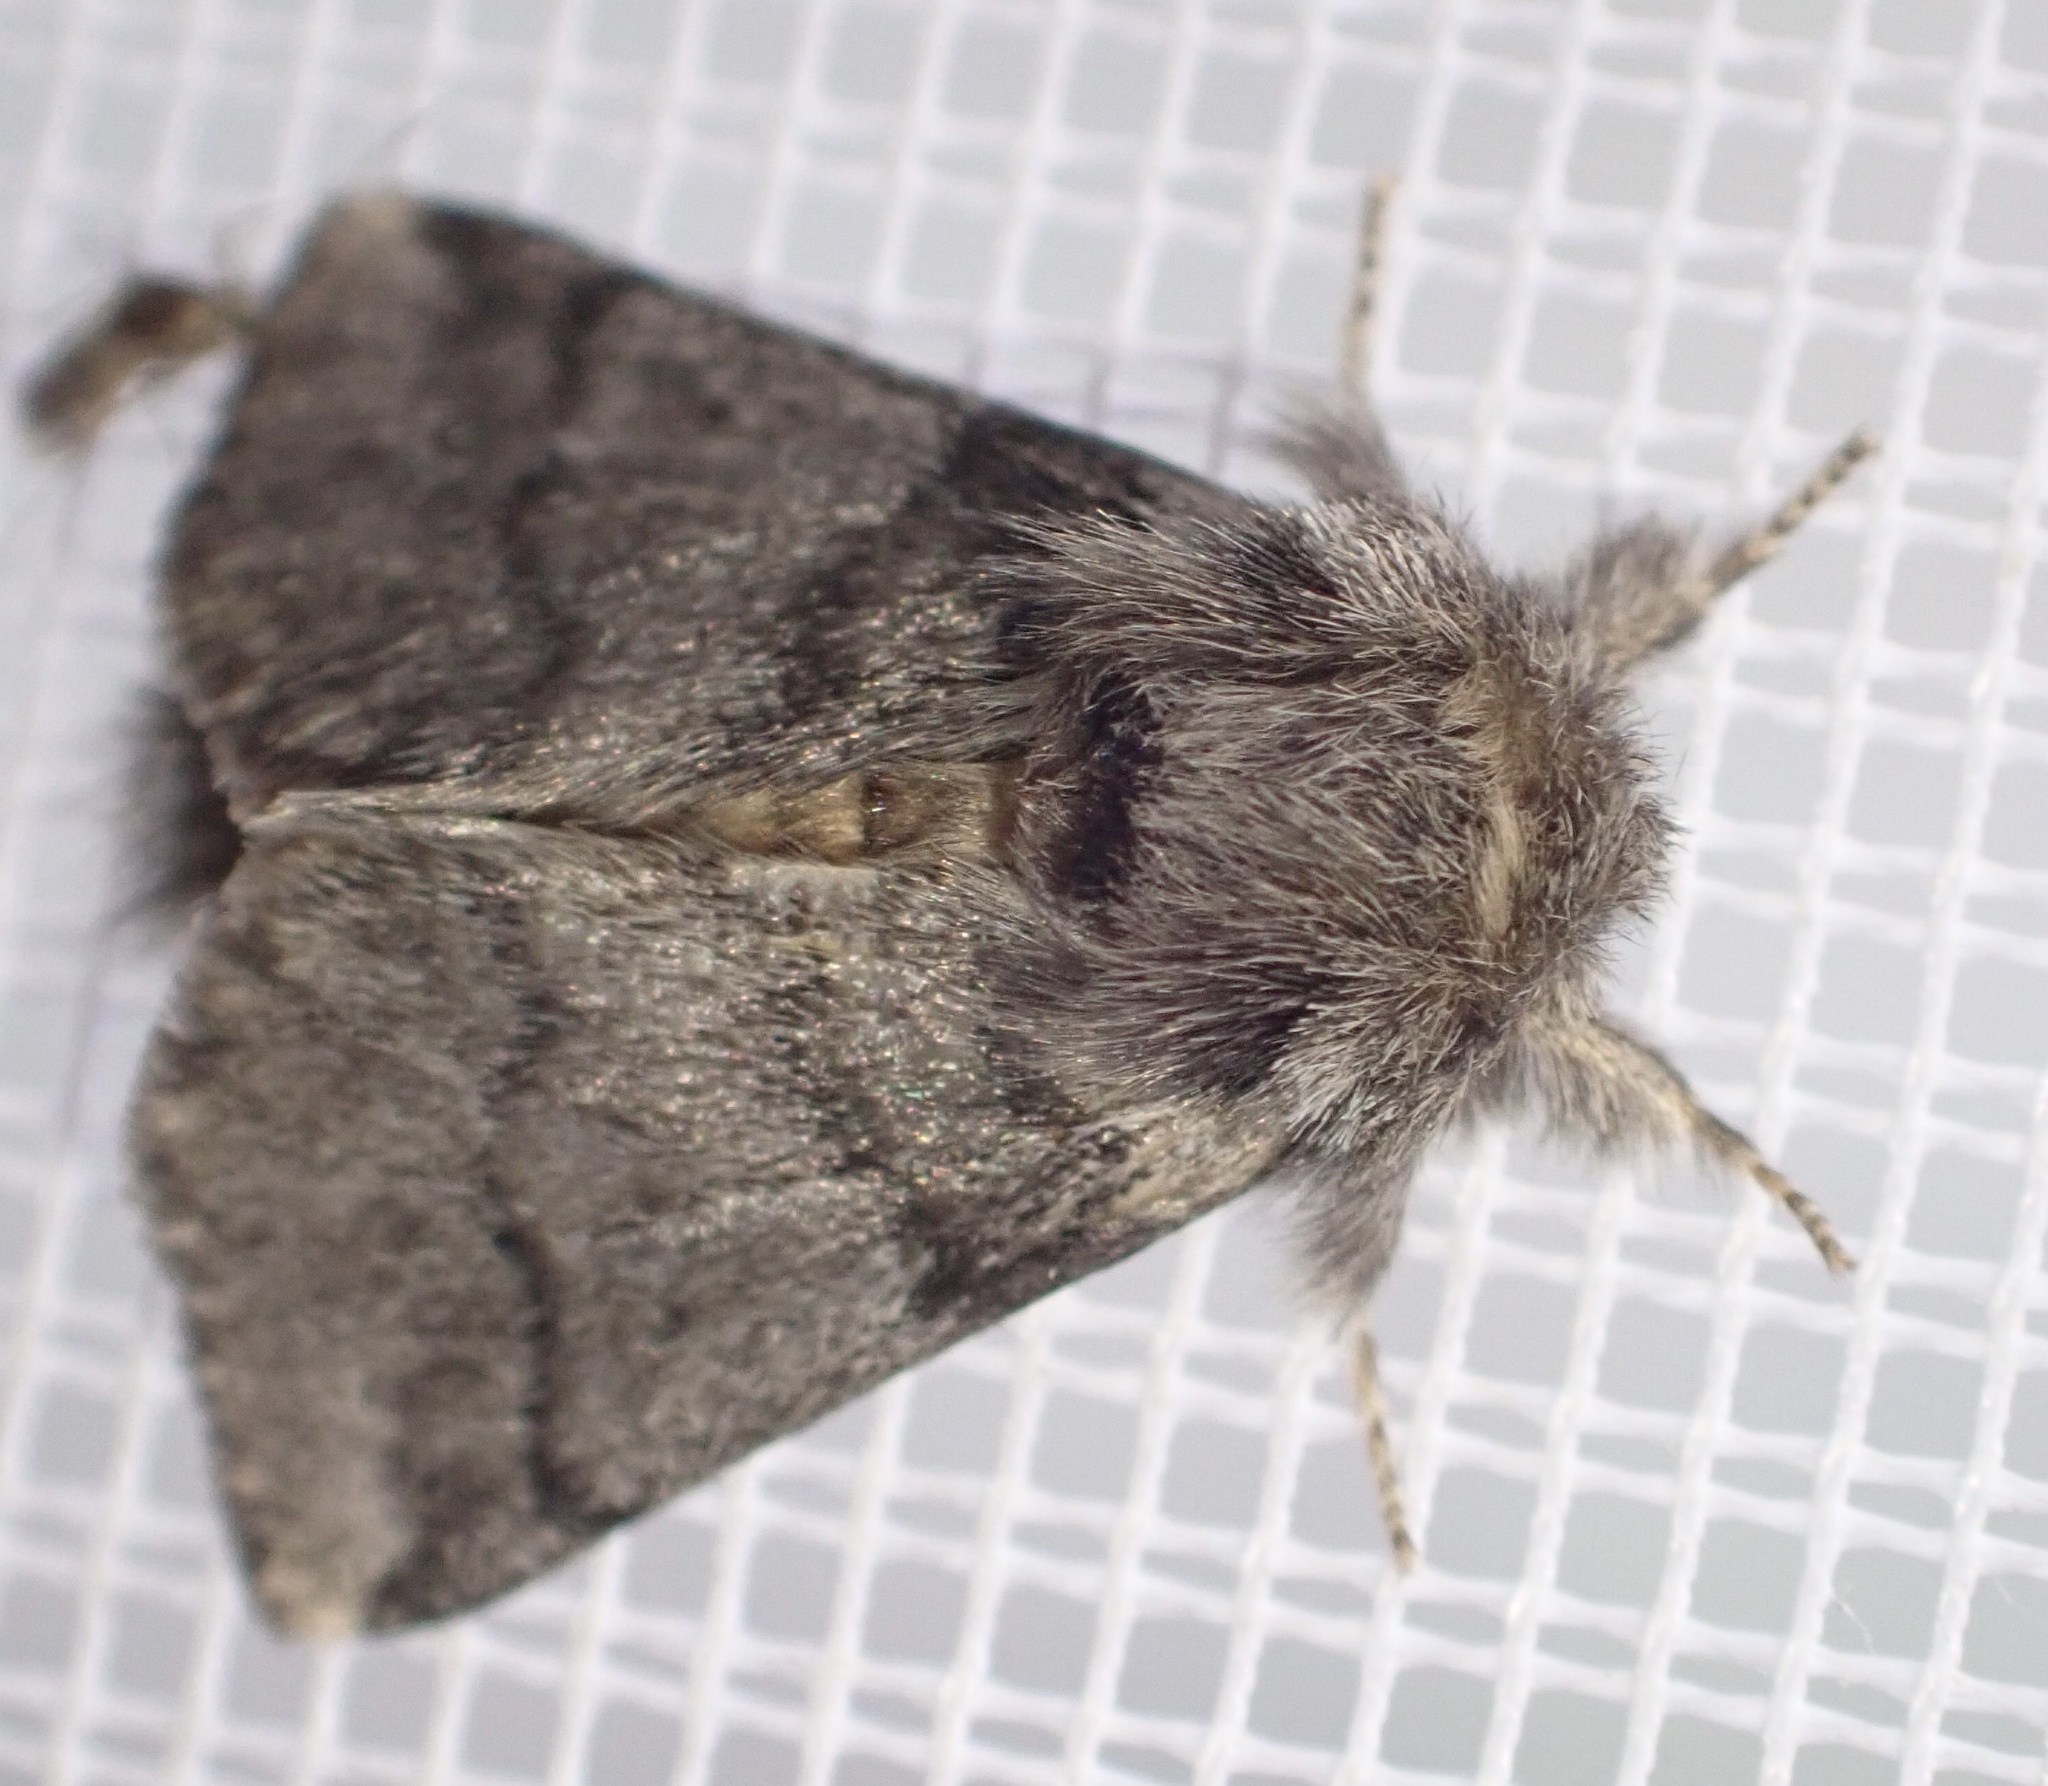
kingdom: Animalia
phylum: Arthropoda
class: Insecta
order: Lepidoptera
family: Notodontidae
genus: Thaumetopoea
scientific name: Thaumetopoea processionea
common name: Oak processionea
